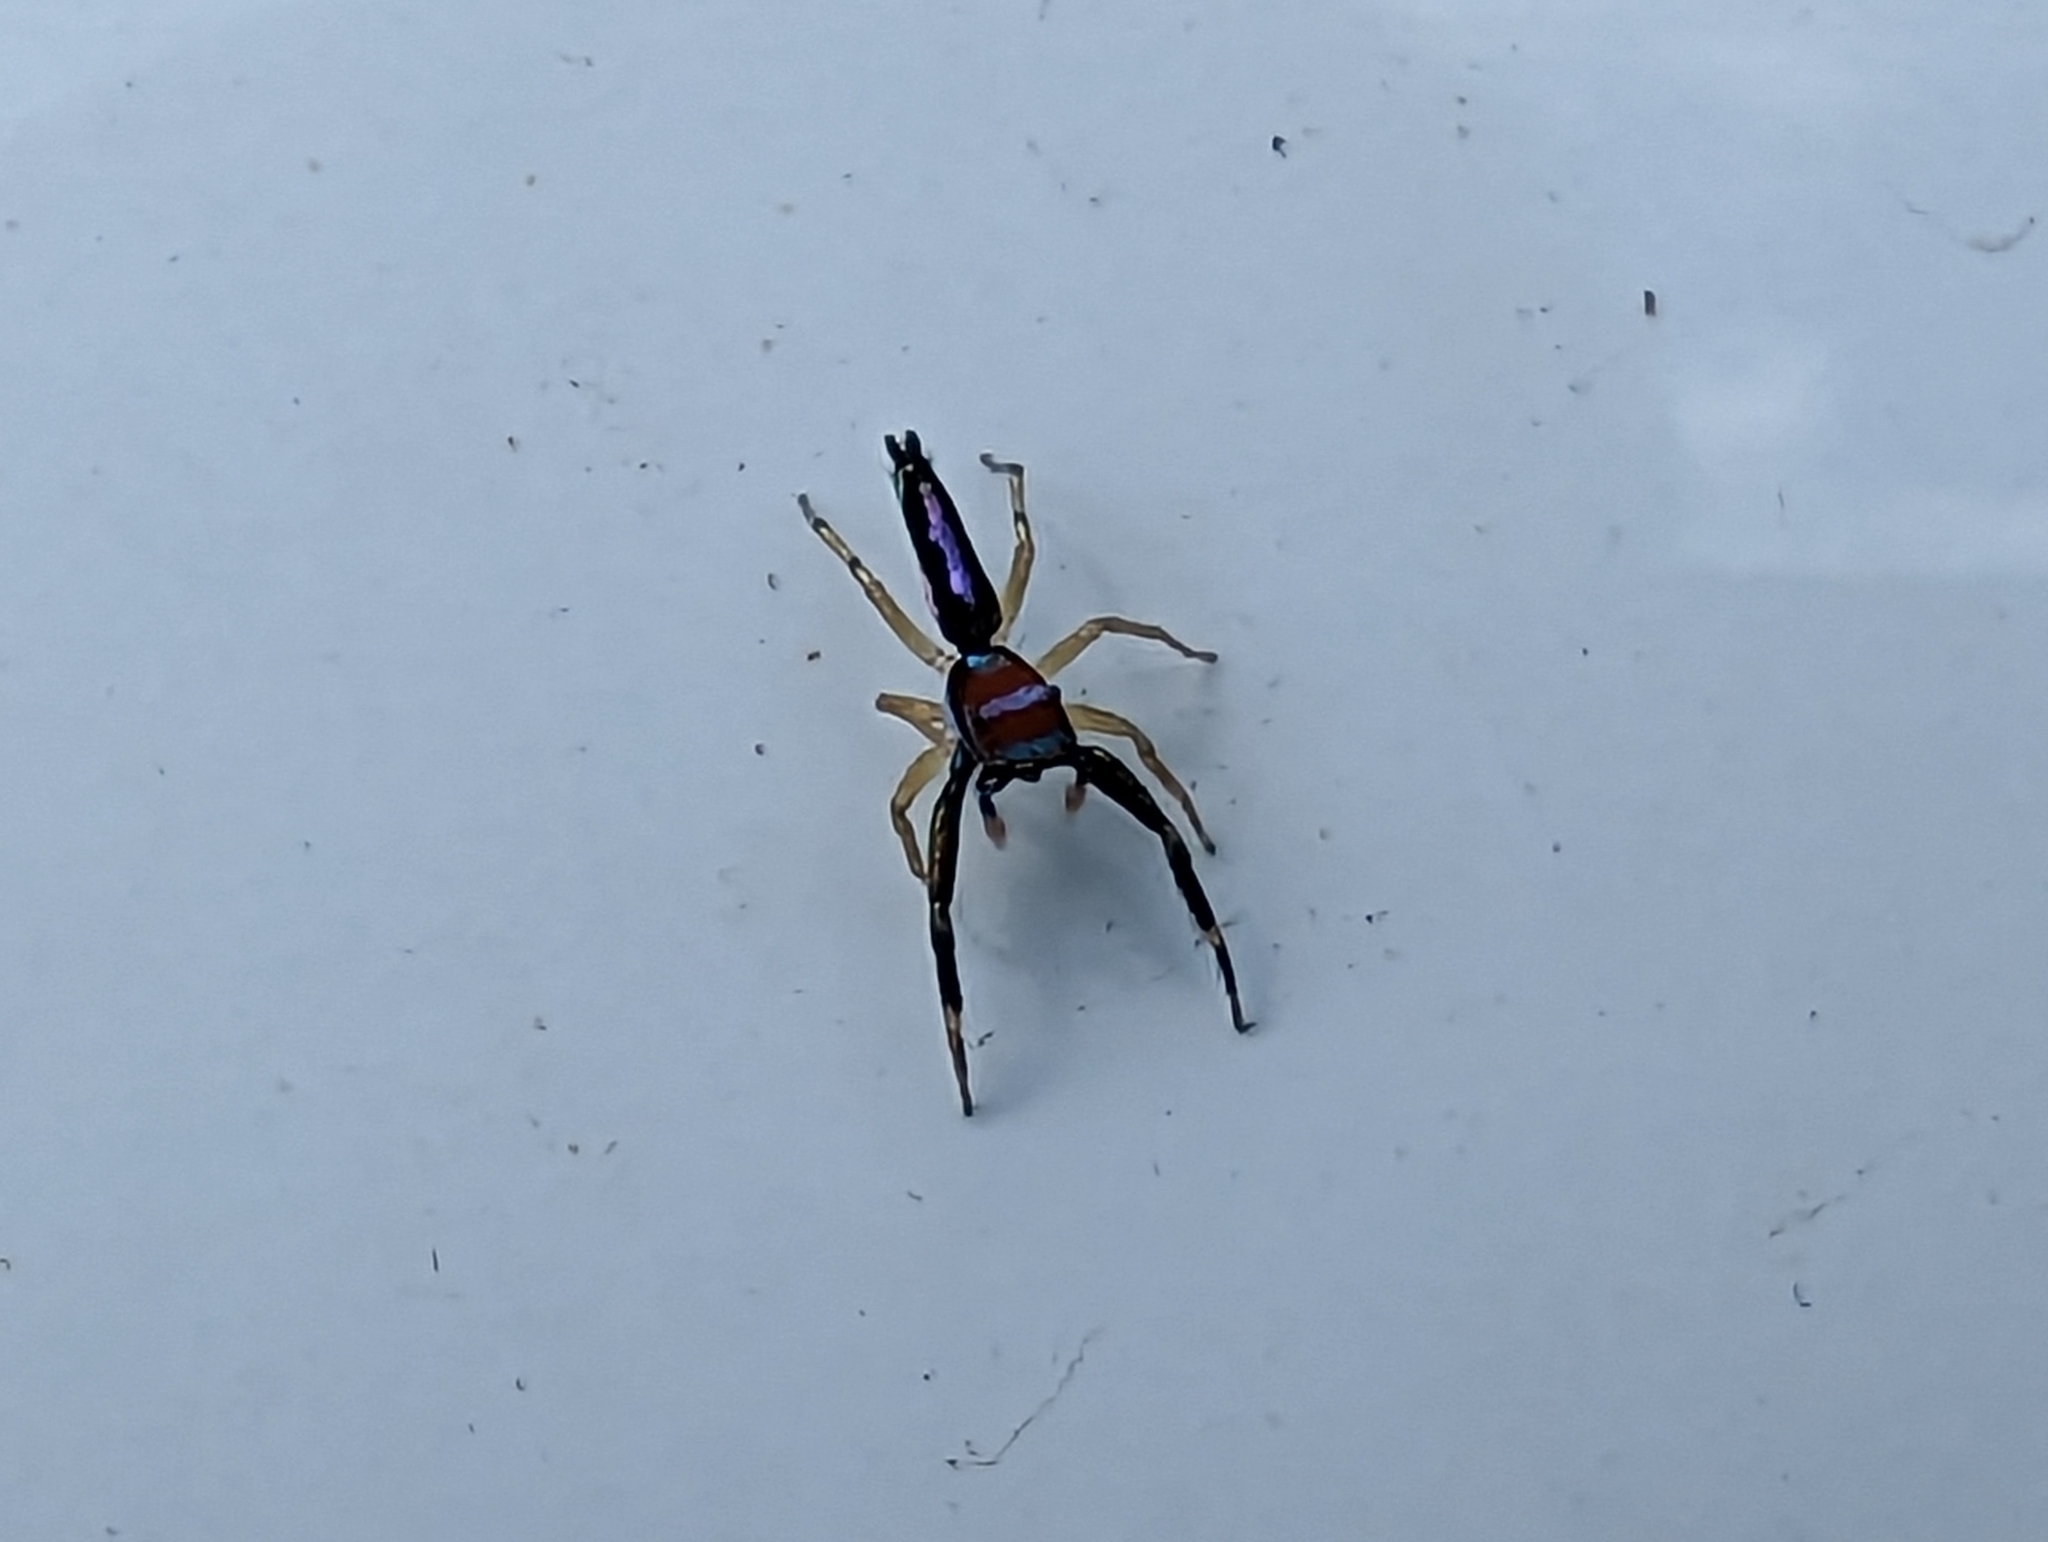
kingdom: Animalia
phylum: Arthropoda
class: Arachnida
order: Araneae
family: Salticidae
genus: Chrysilla
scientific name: Chrysilla lauta
